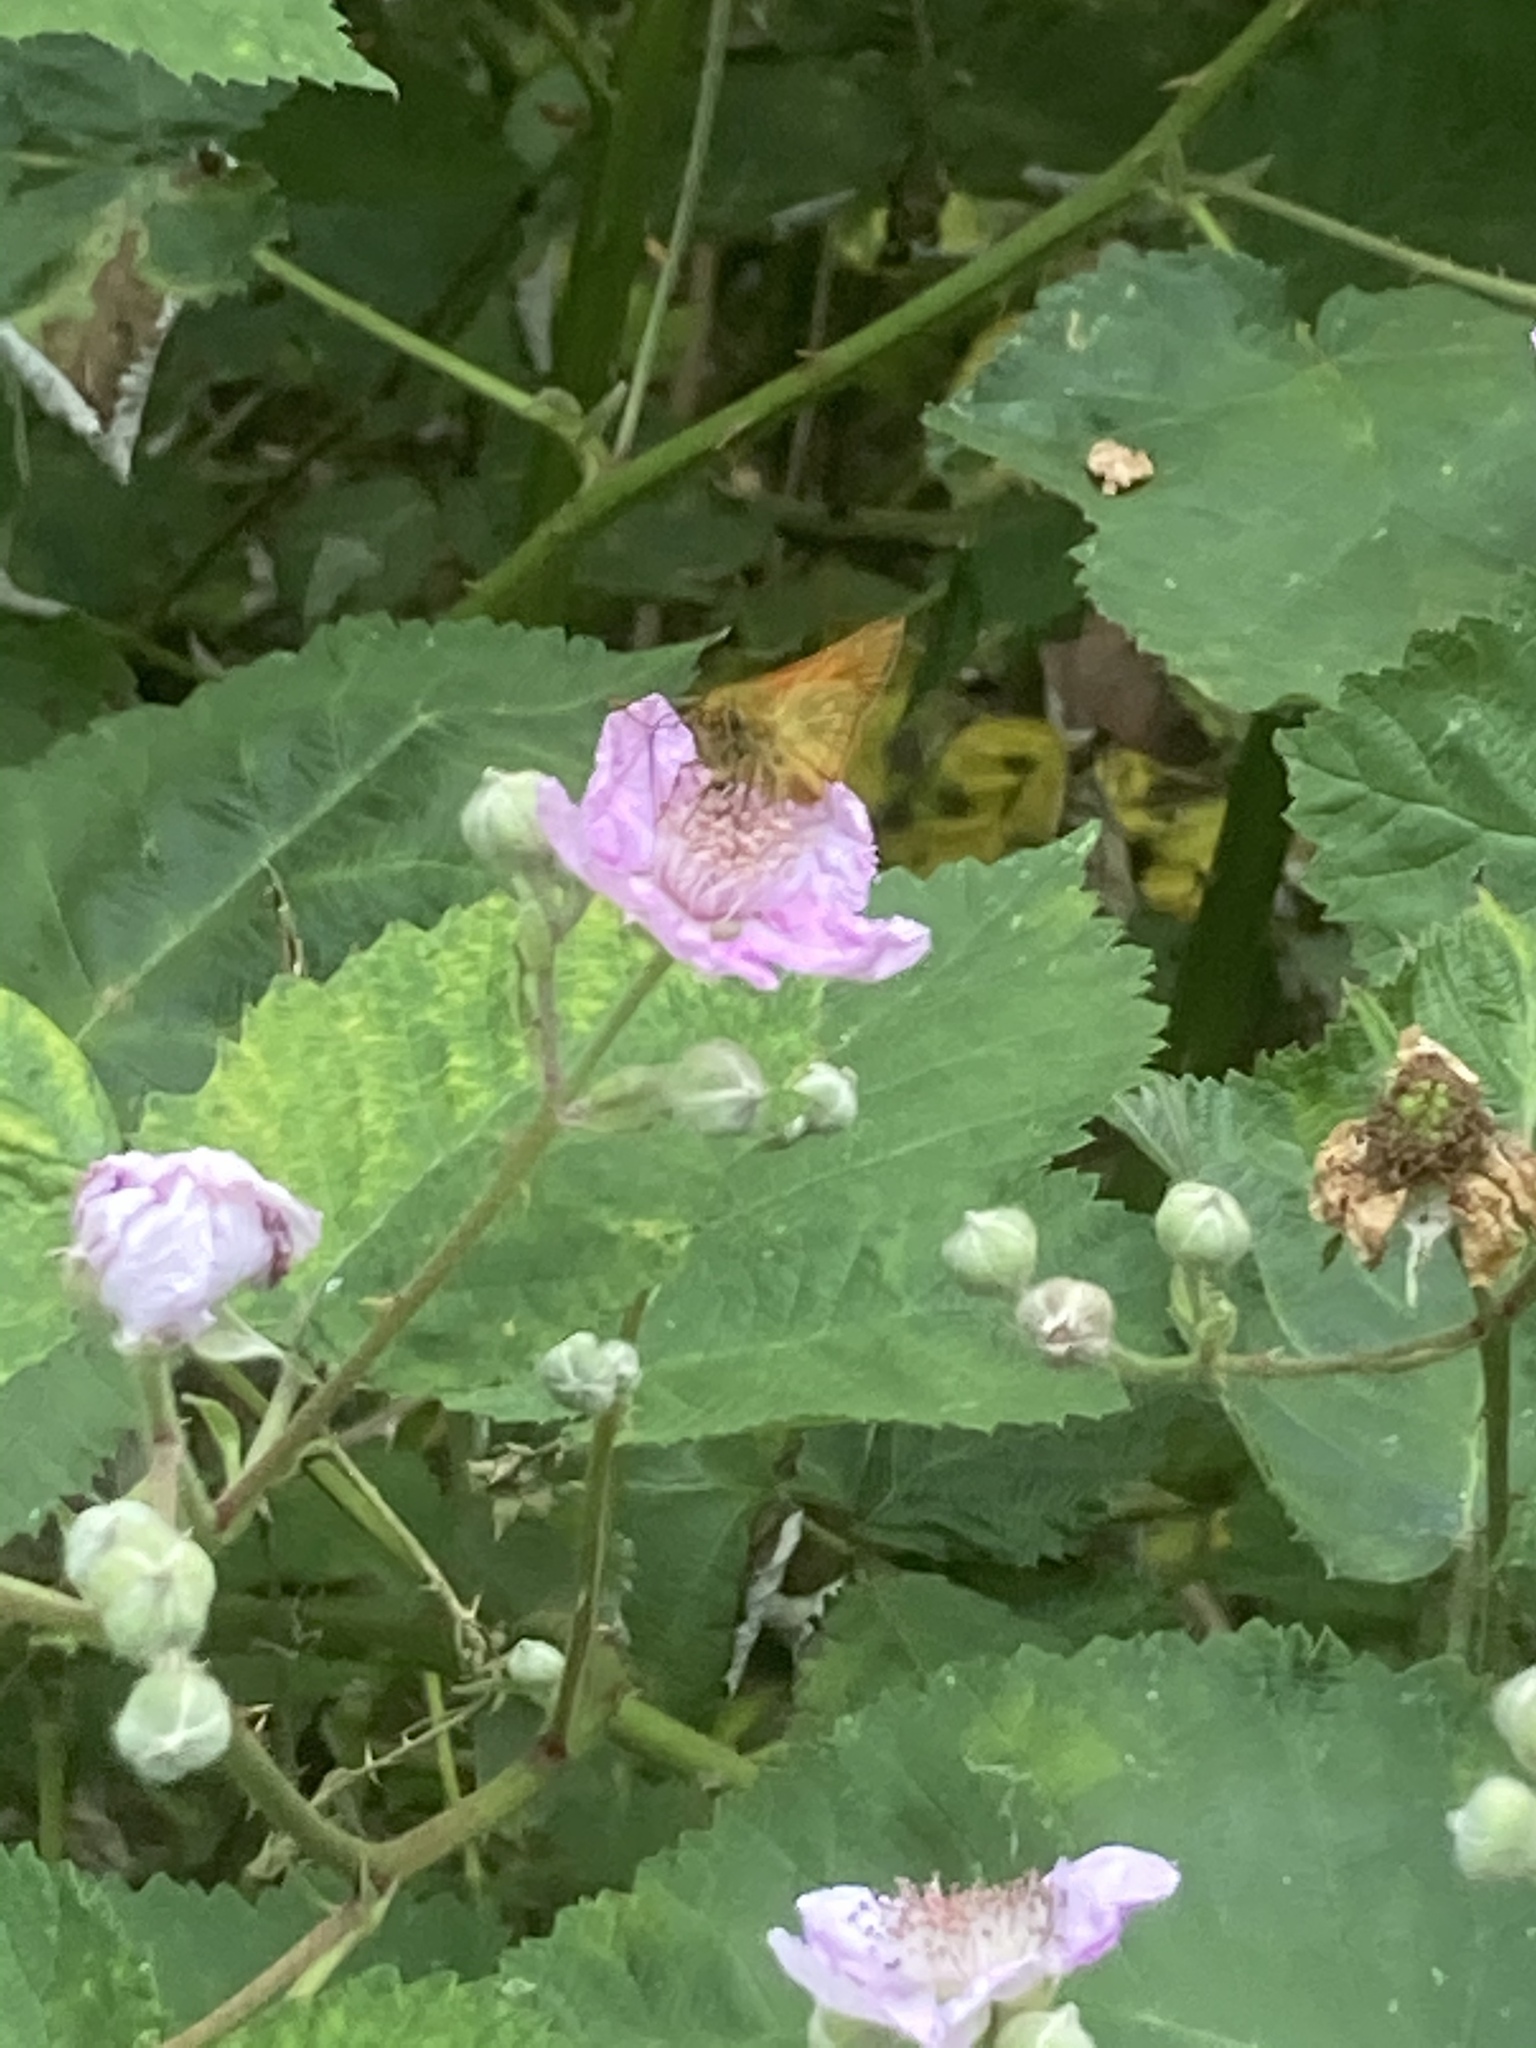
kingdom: Animalia
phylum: Arthropoda
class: Insecta
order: Lepidoptera
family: Hesperiidae
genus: Ochlodes
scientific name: Ochlodes venata
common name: Large skipper
